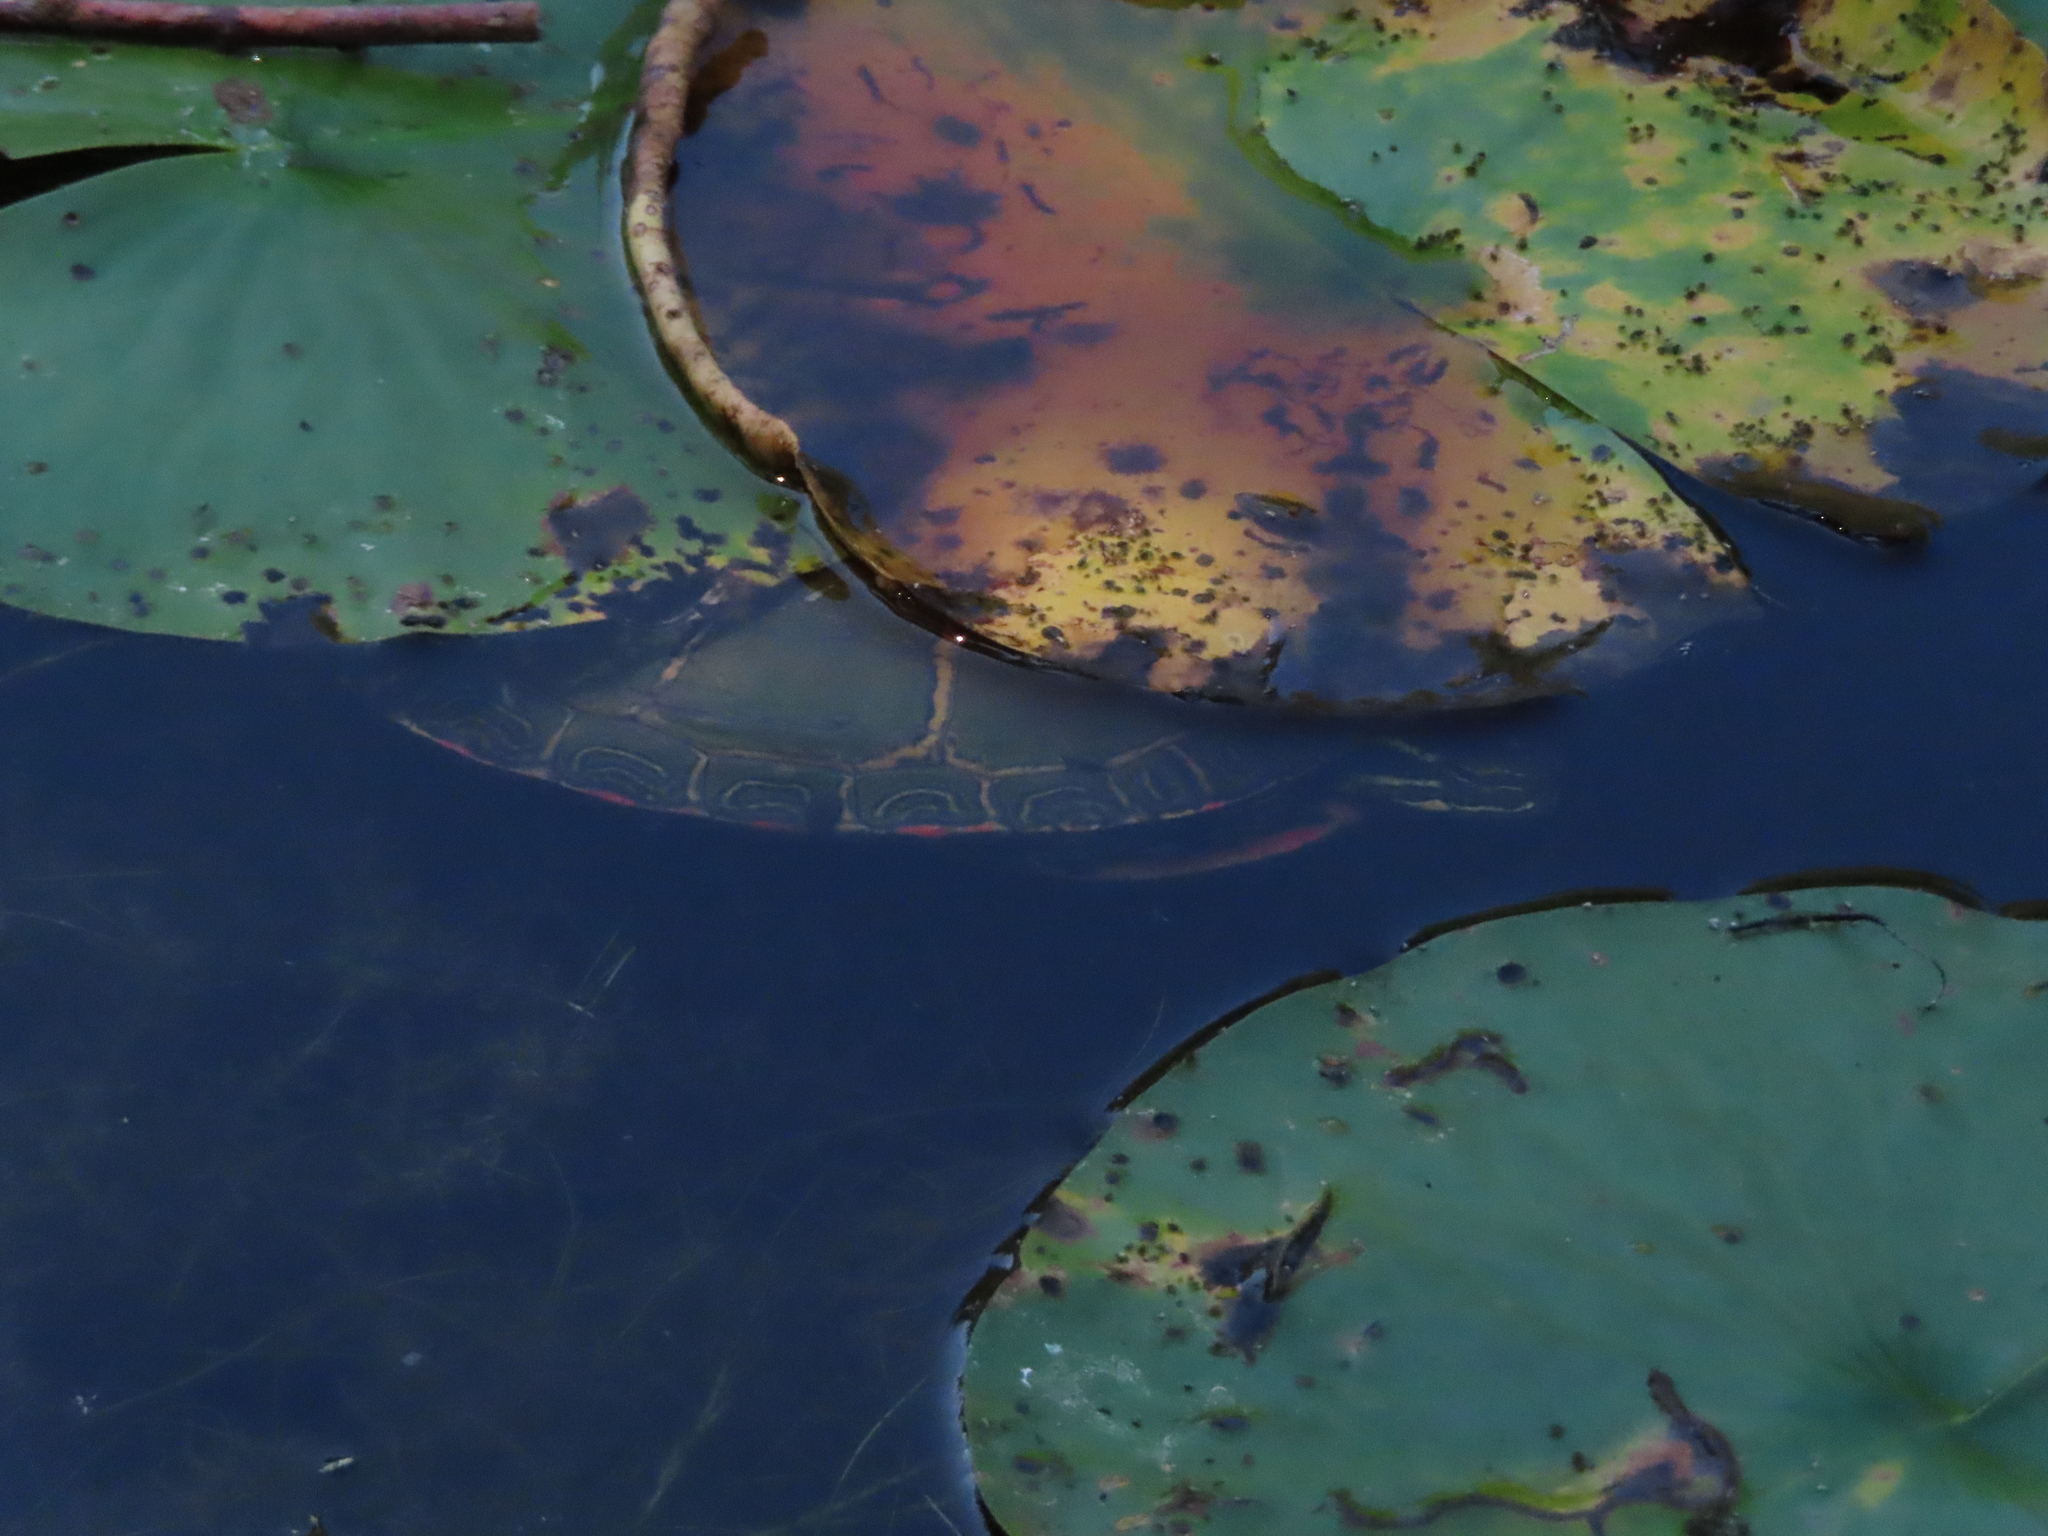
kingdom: Animalia
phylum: Chordata
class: Testudines
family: Emydidae
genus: Chrysemys
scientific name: Chrysemys picta
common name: Painted turtle
